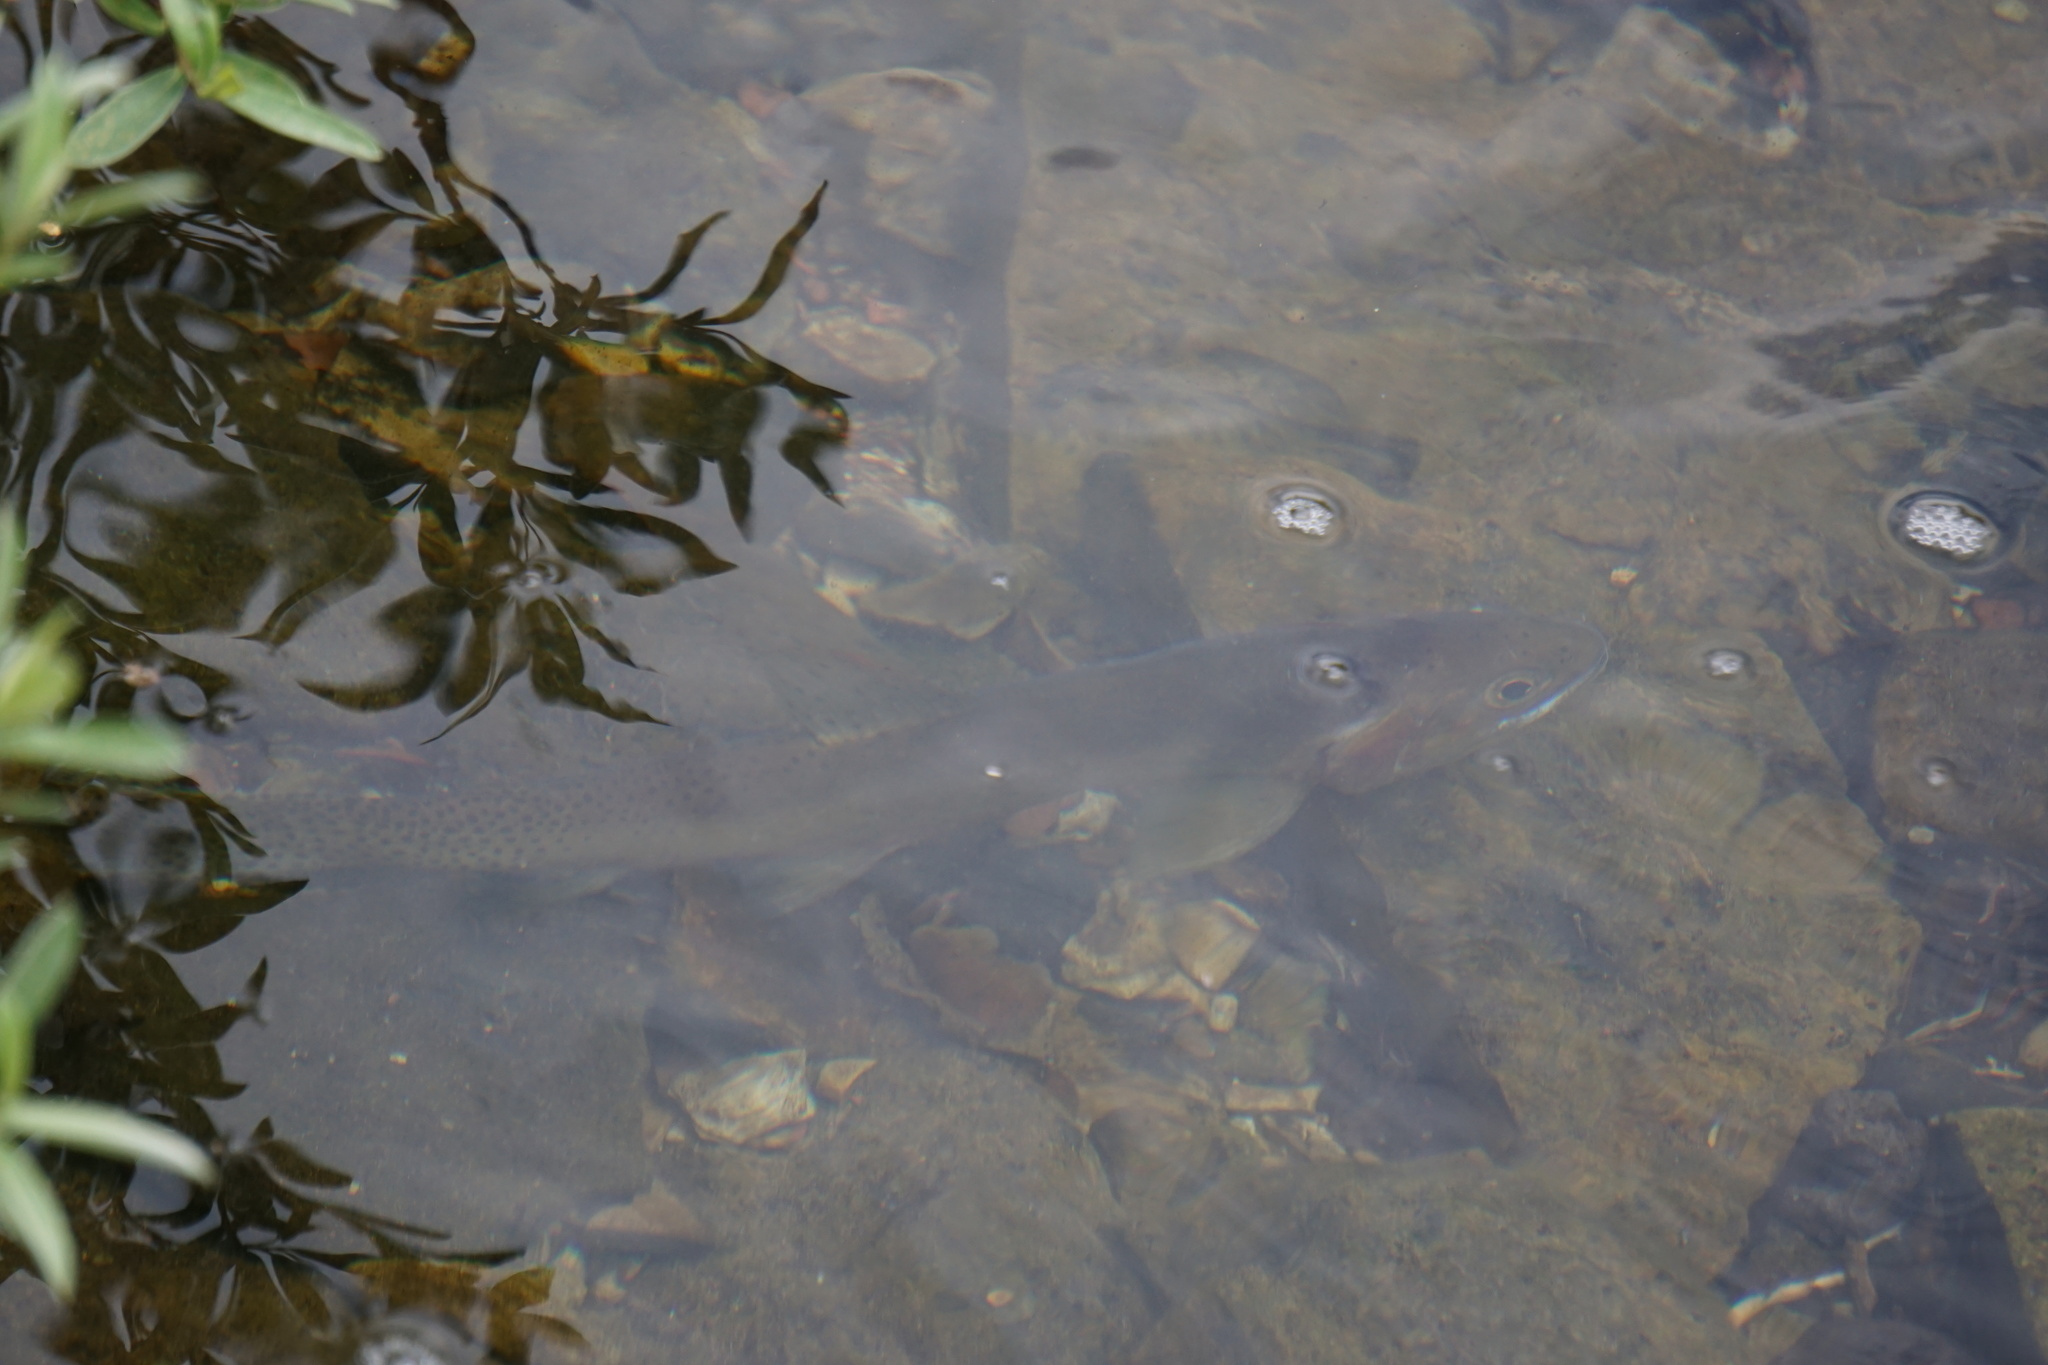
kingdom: Animalia
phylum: Chordata
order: Salmoniformes
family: Salmonidae
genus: Oncorhynchus
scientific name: Oncorhynchus
